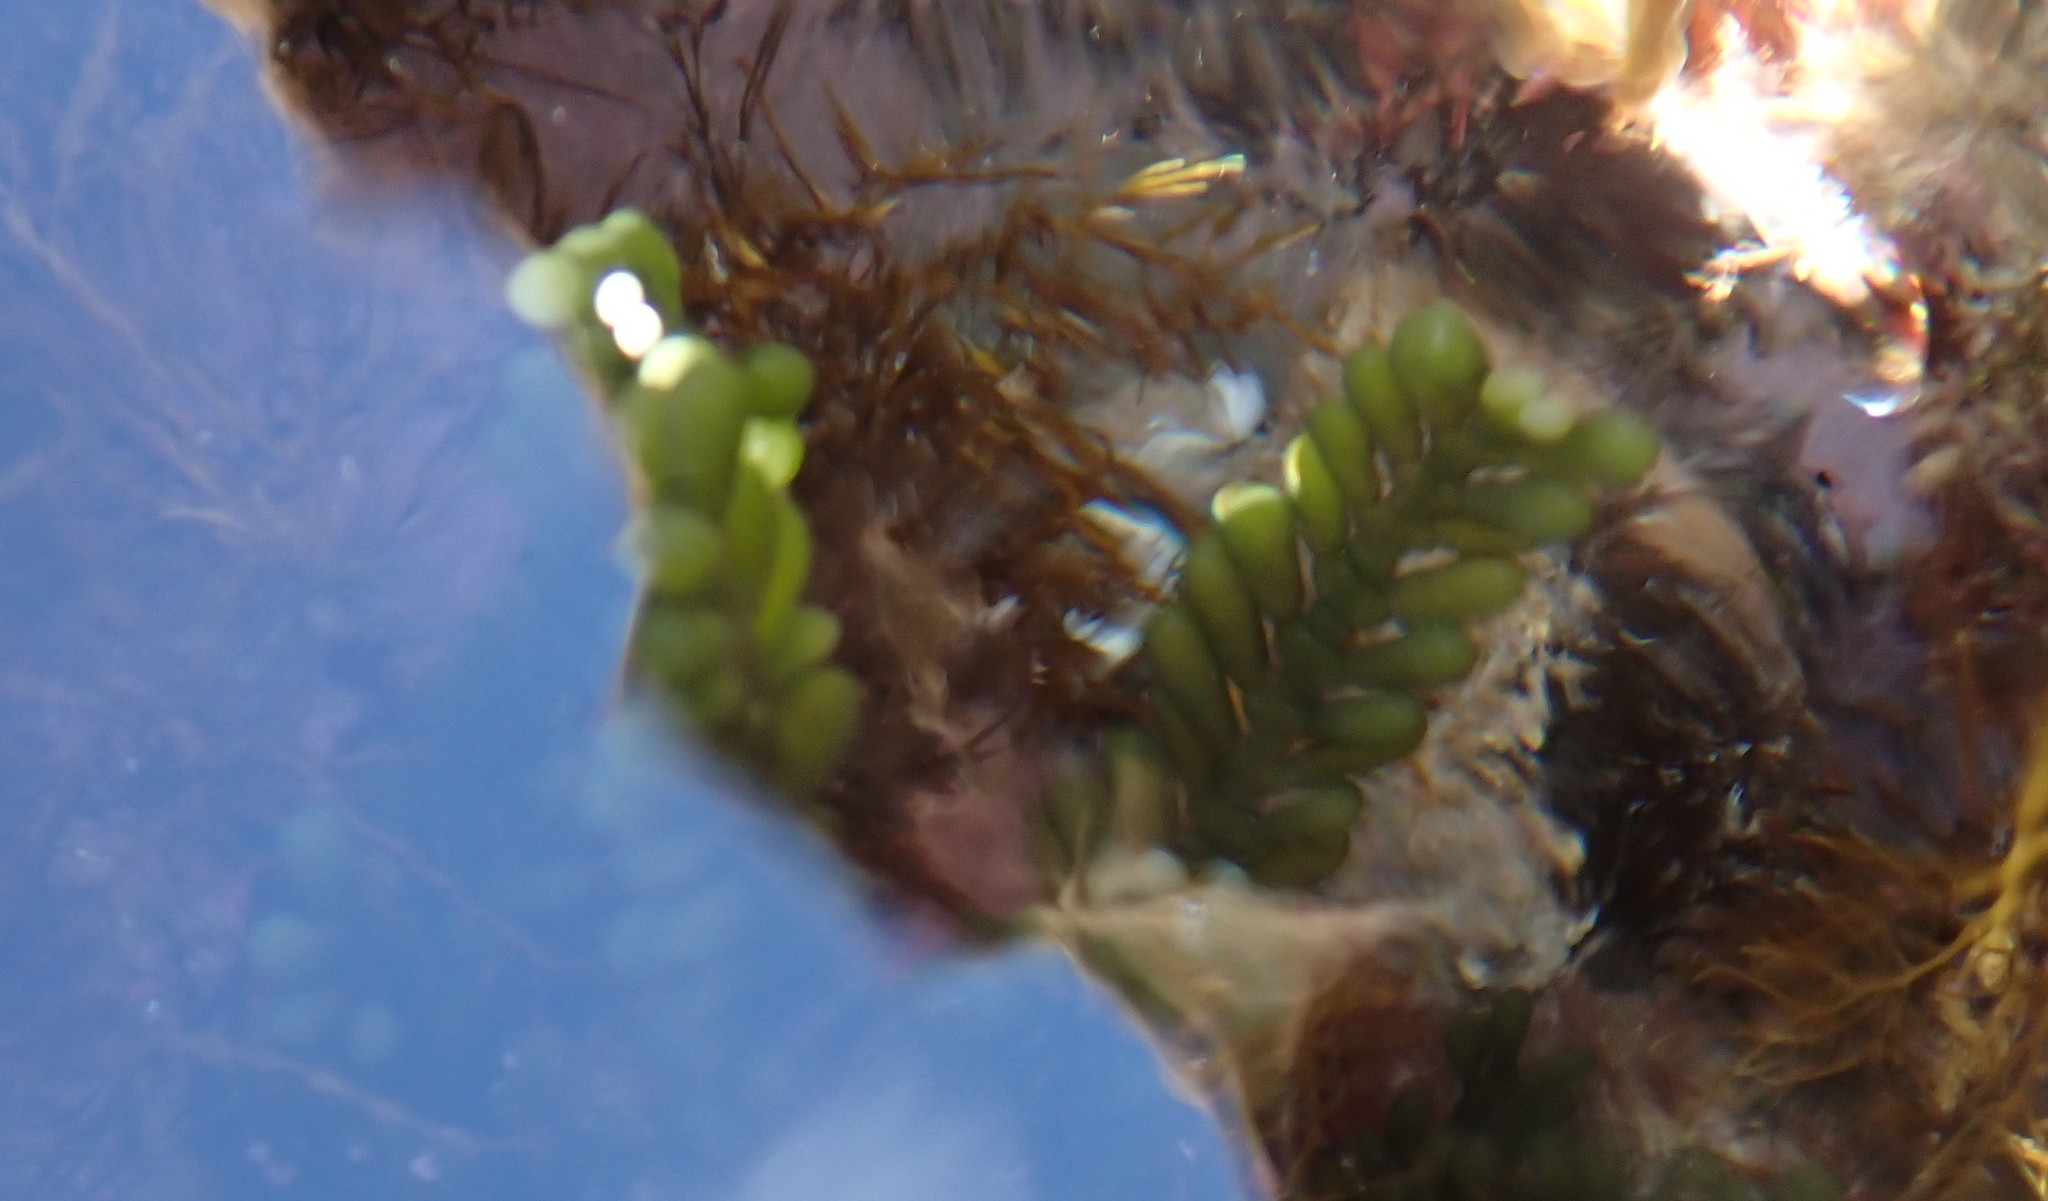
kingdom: Plantae
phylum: Chlorophyta
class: Ulvophyceae
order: Bryopsidales
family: Caulerpaceae
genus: Caulerpa
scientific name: Caulerpa cactoides
